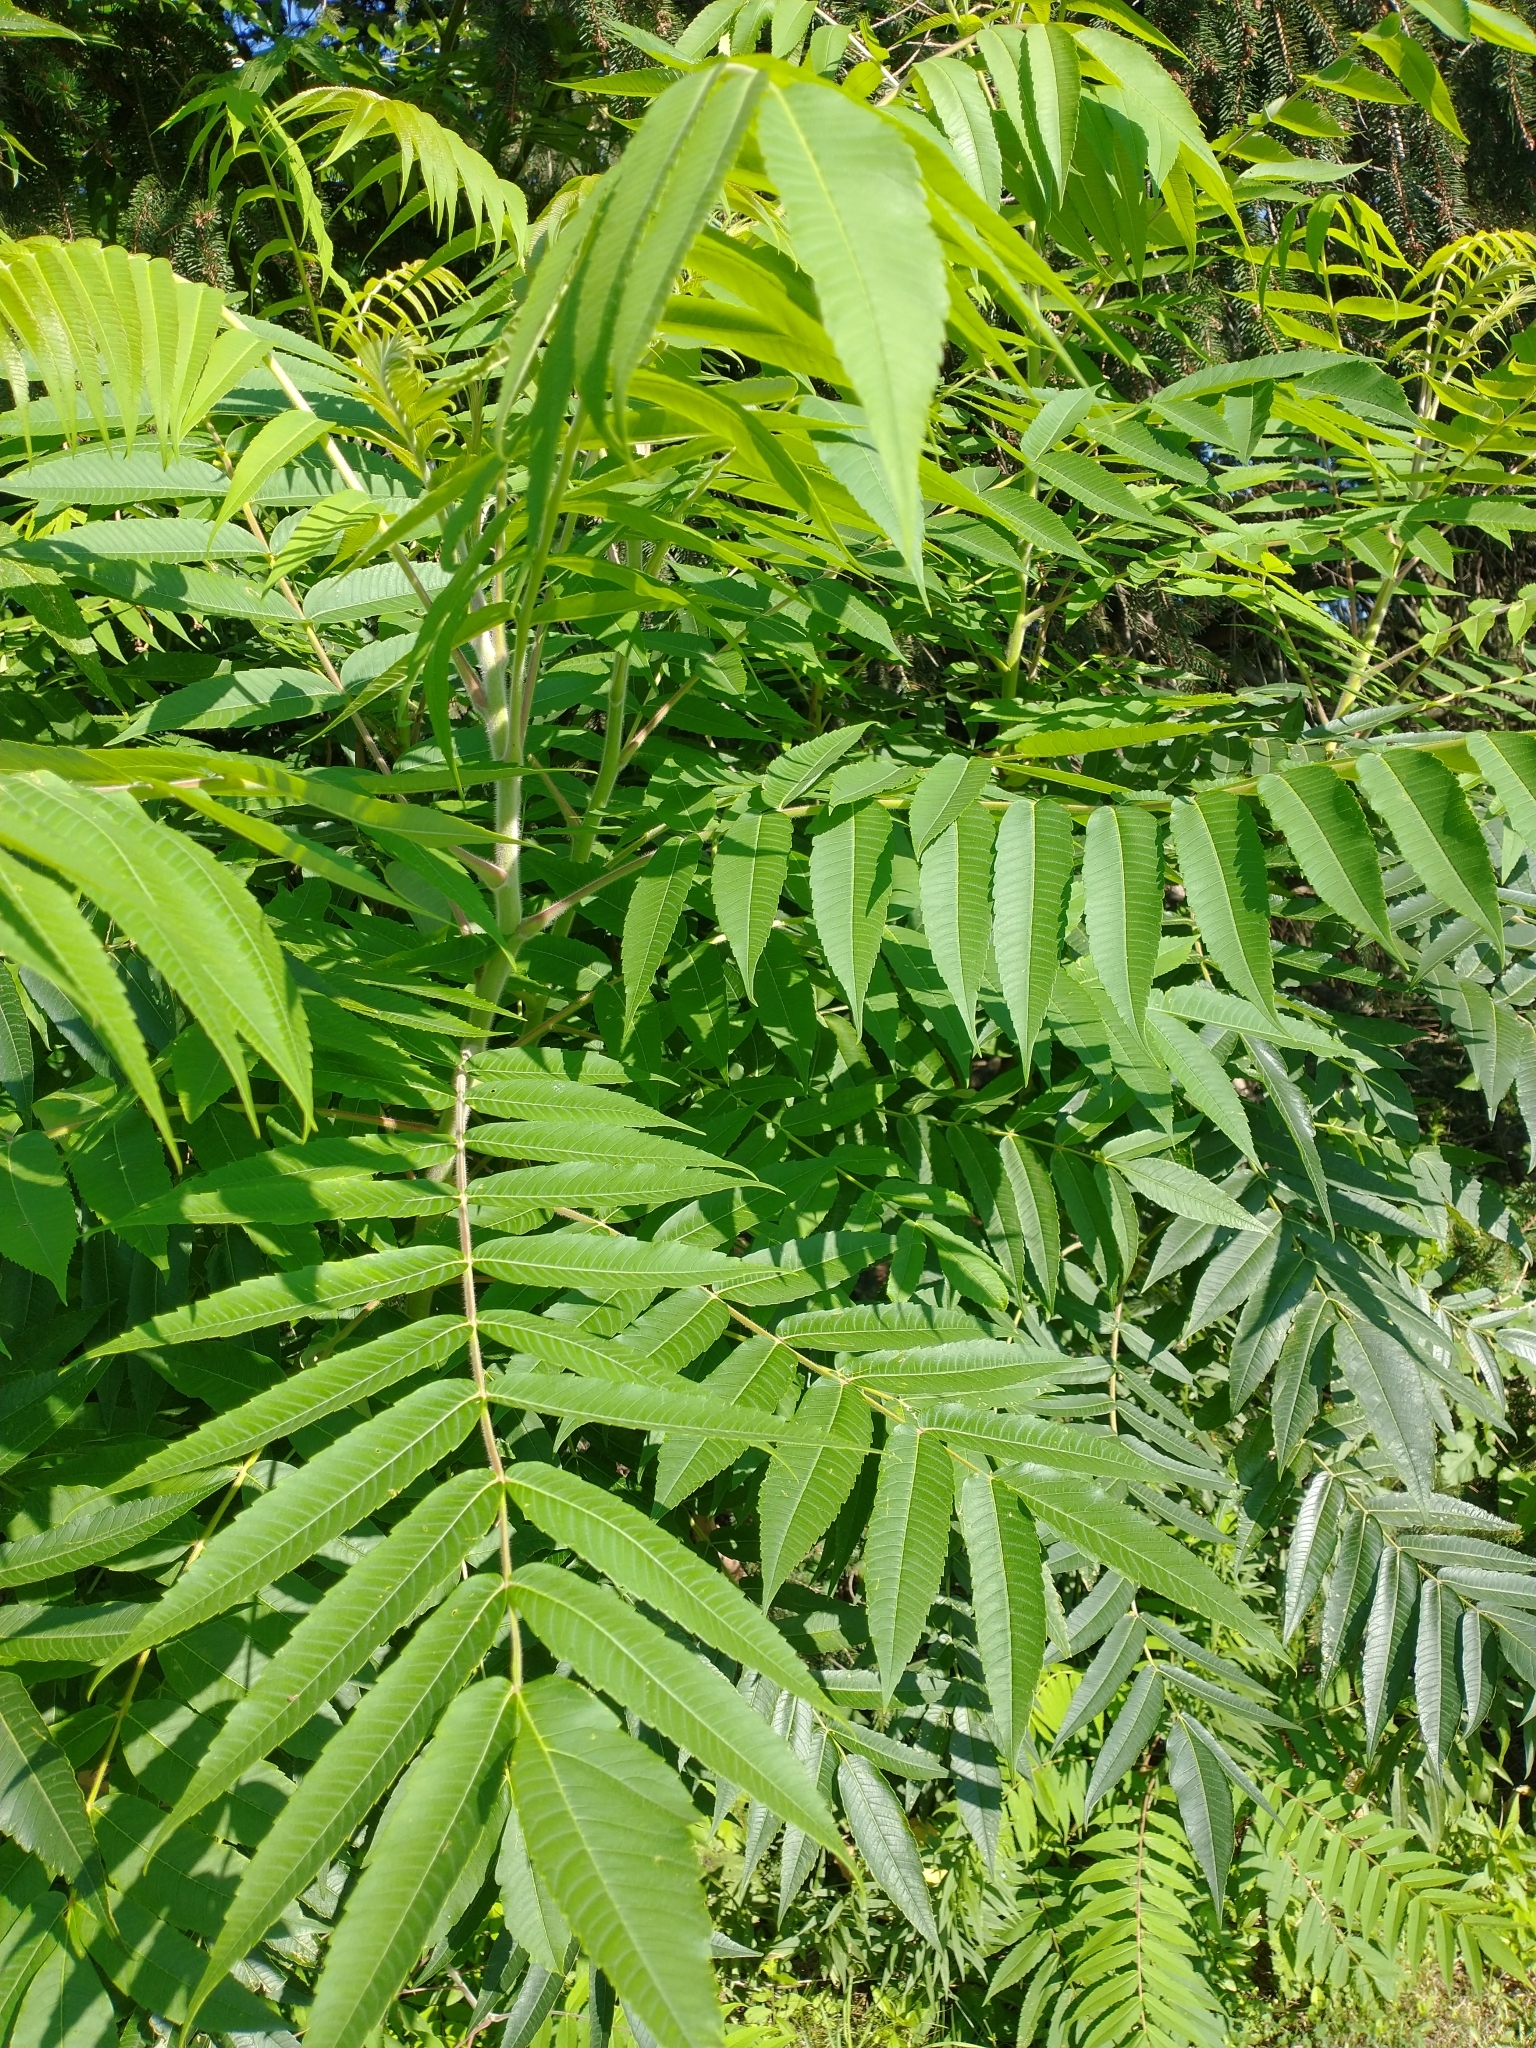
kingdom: Plantae
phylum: Tracheophyta
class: Magnoliopsida
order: Sapindales
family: Anacardiaceae
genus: Rhus
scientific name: Rhus typhina
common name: Staghorn sumac
